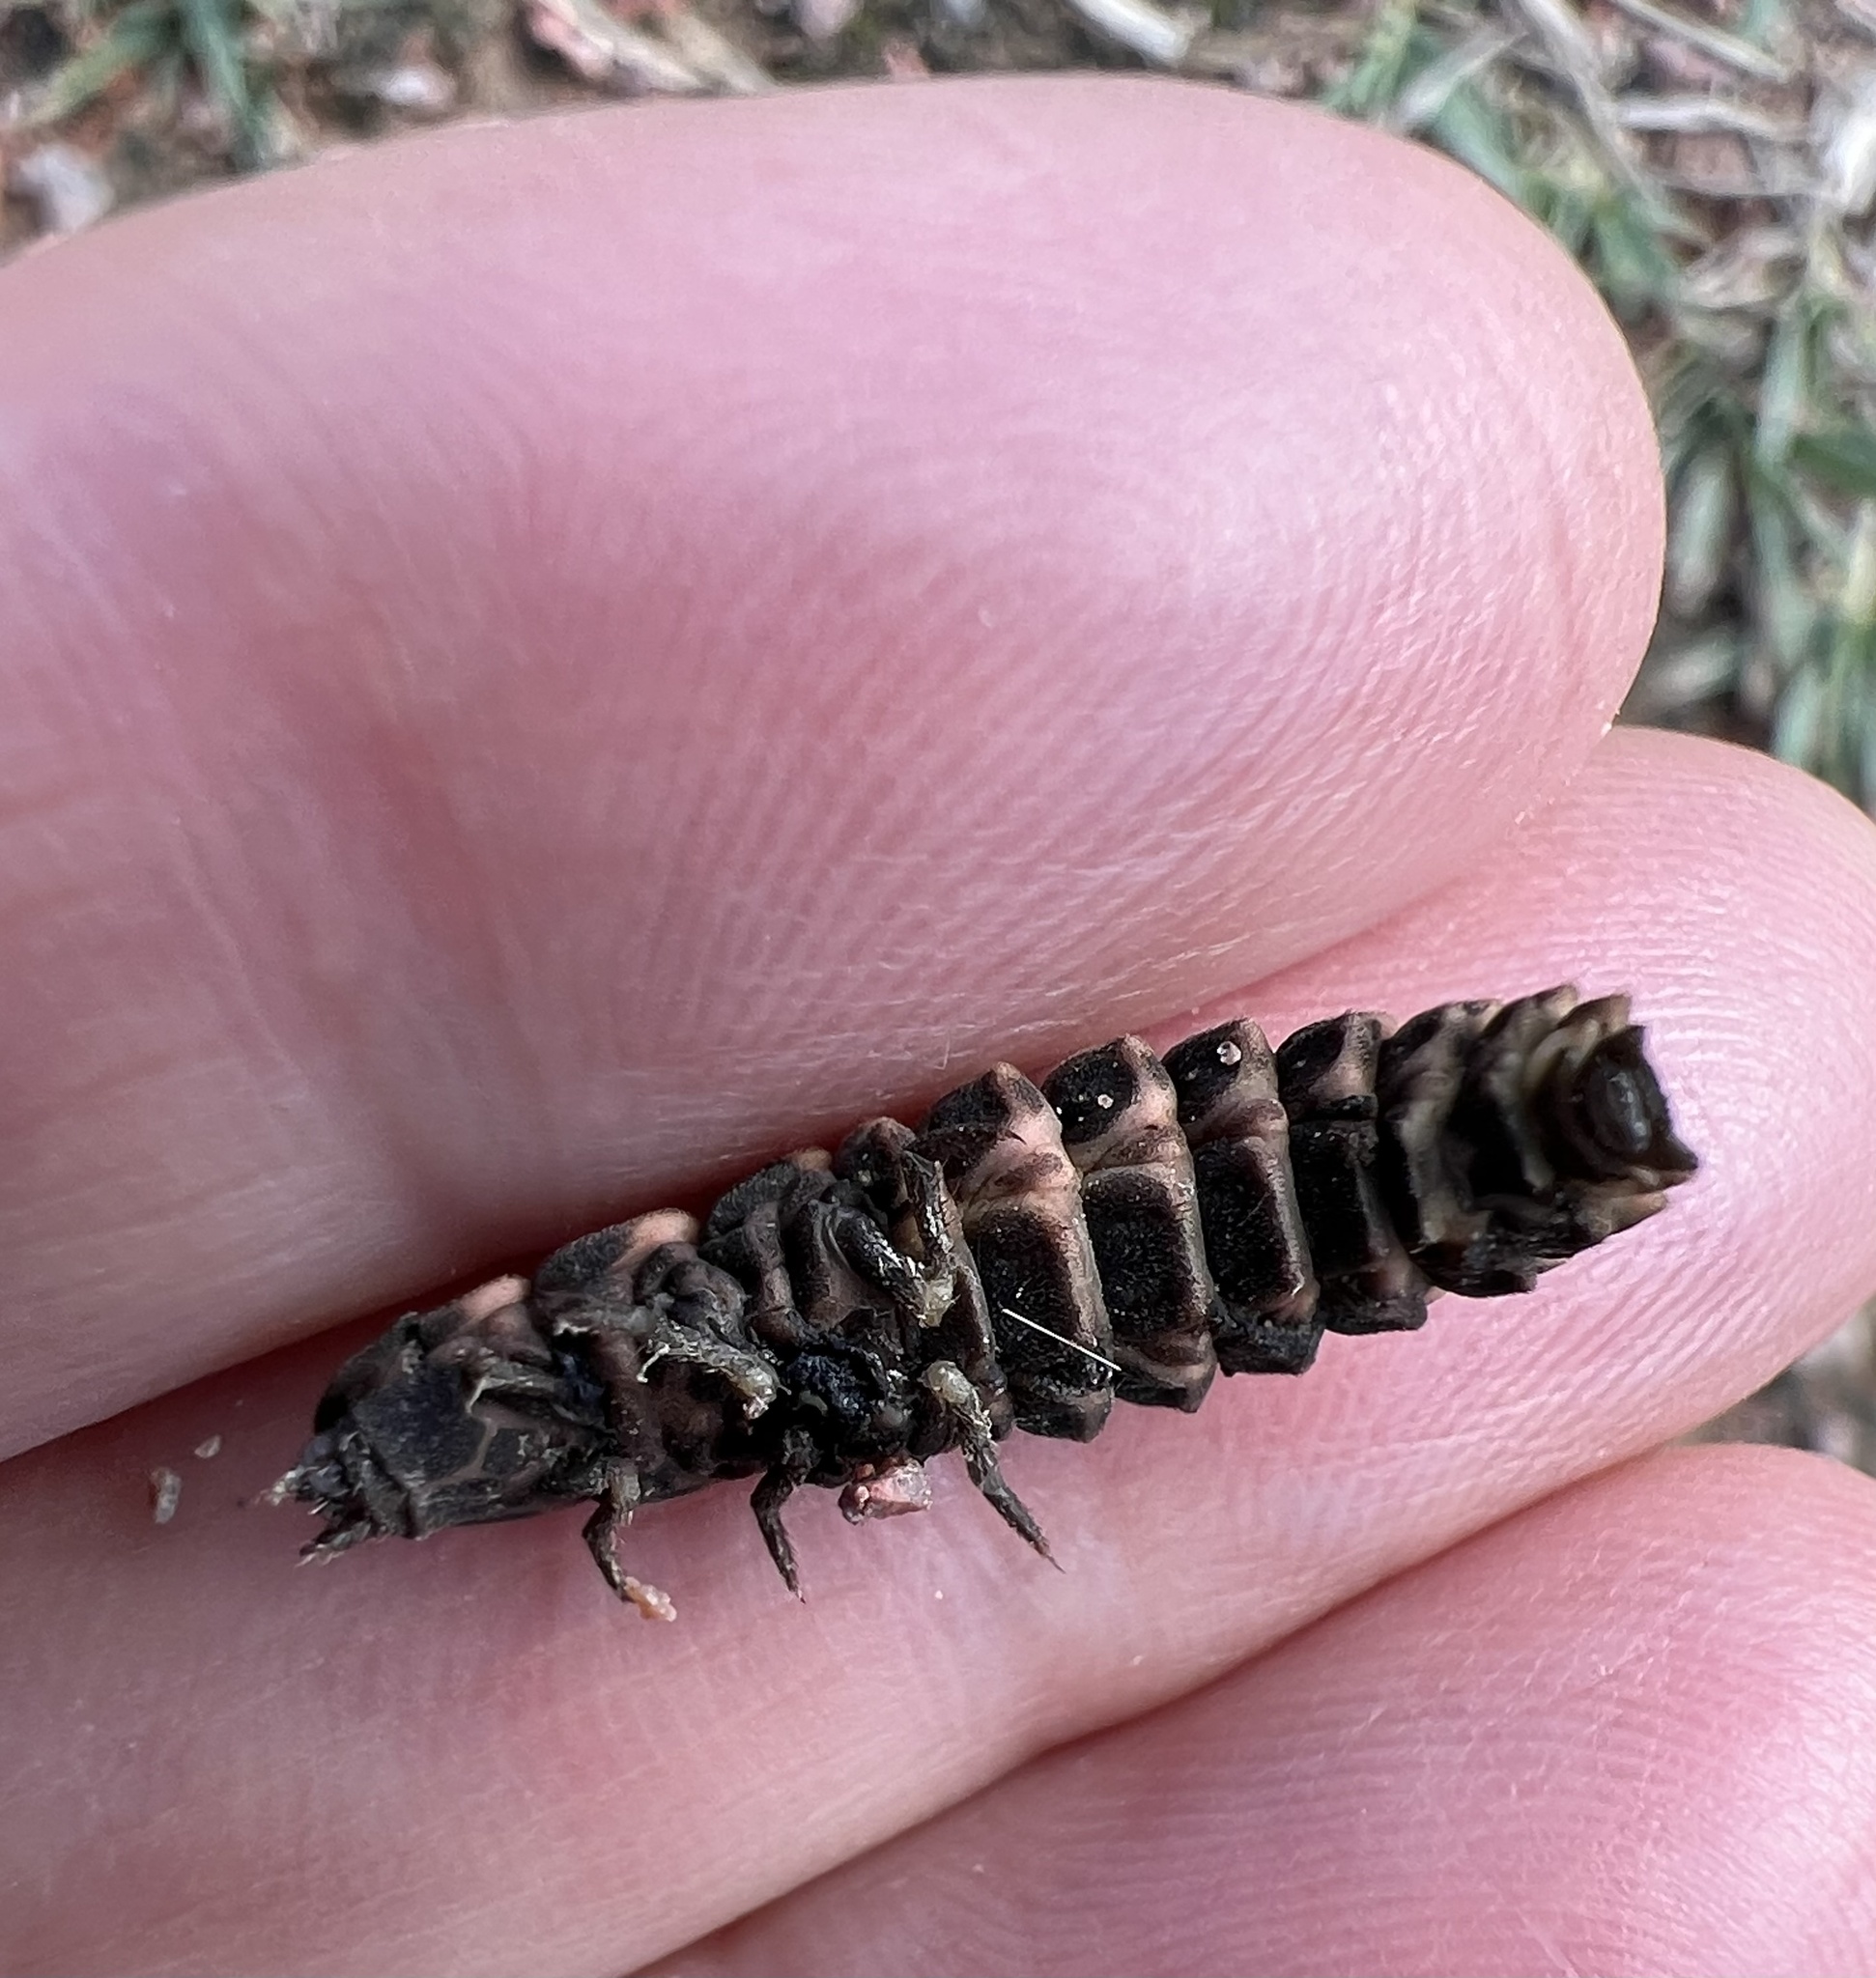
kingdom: Animalia
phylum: Arthropoda
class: Insecta
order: Coleoptera
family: Lampyridae
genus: Lampyris
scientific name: Lampyris noctiluca
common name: Glow-worm
